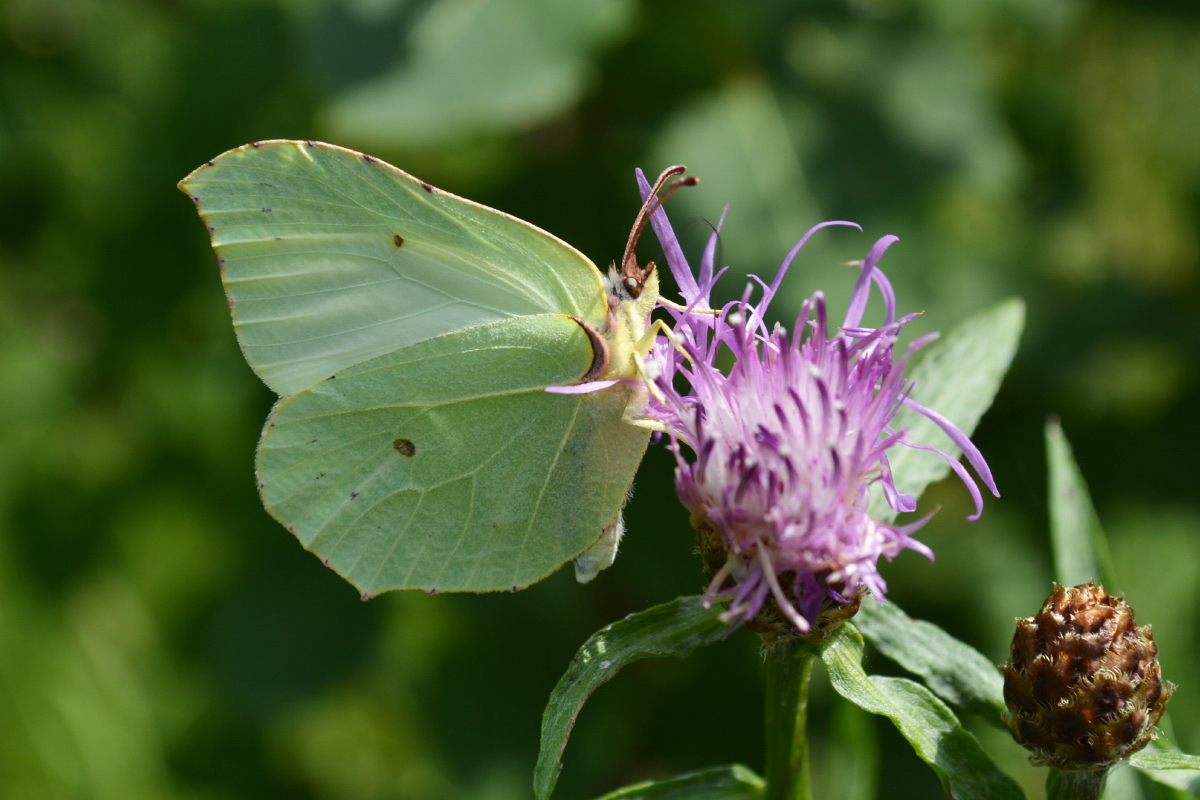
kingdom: Animalia
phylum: Arthropoda
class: Insecta
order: Lepidoptera
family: Pieridae
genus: Gonepteryx
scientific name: Gonepteryx rhamni
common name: Brimstone
